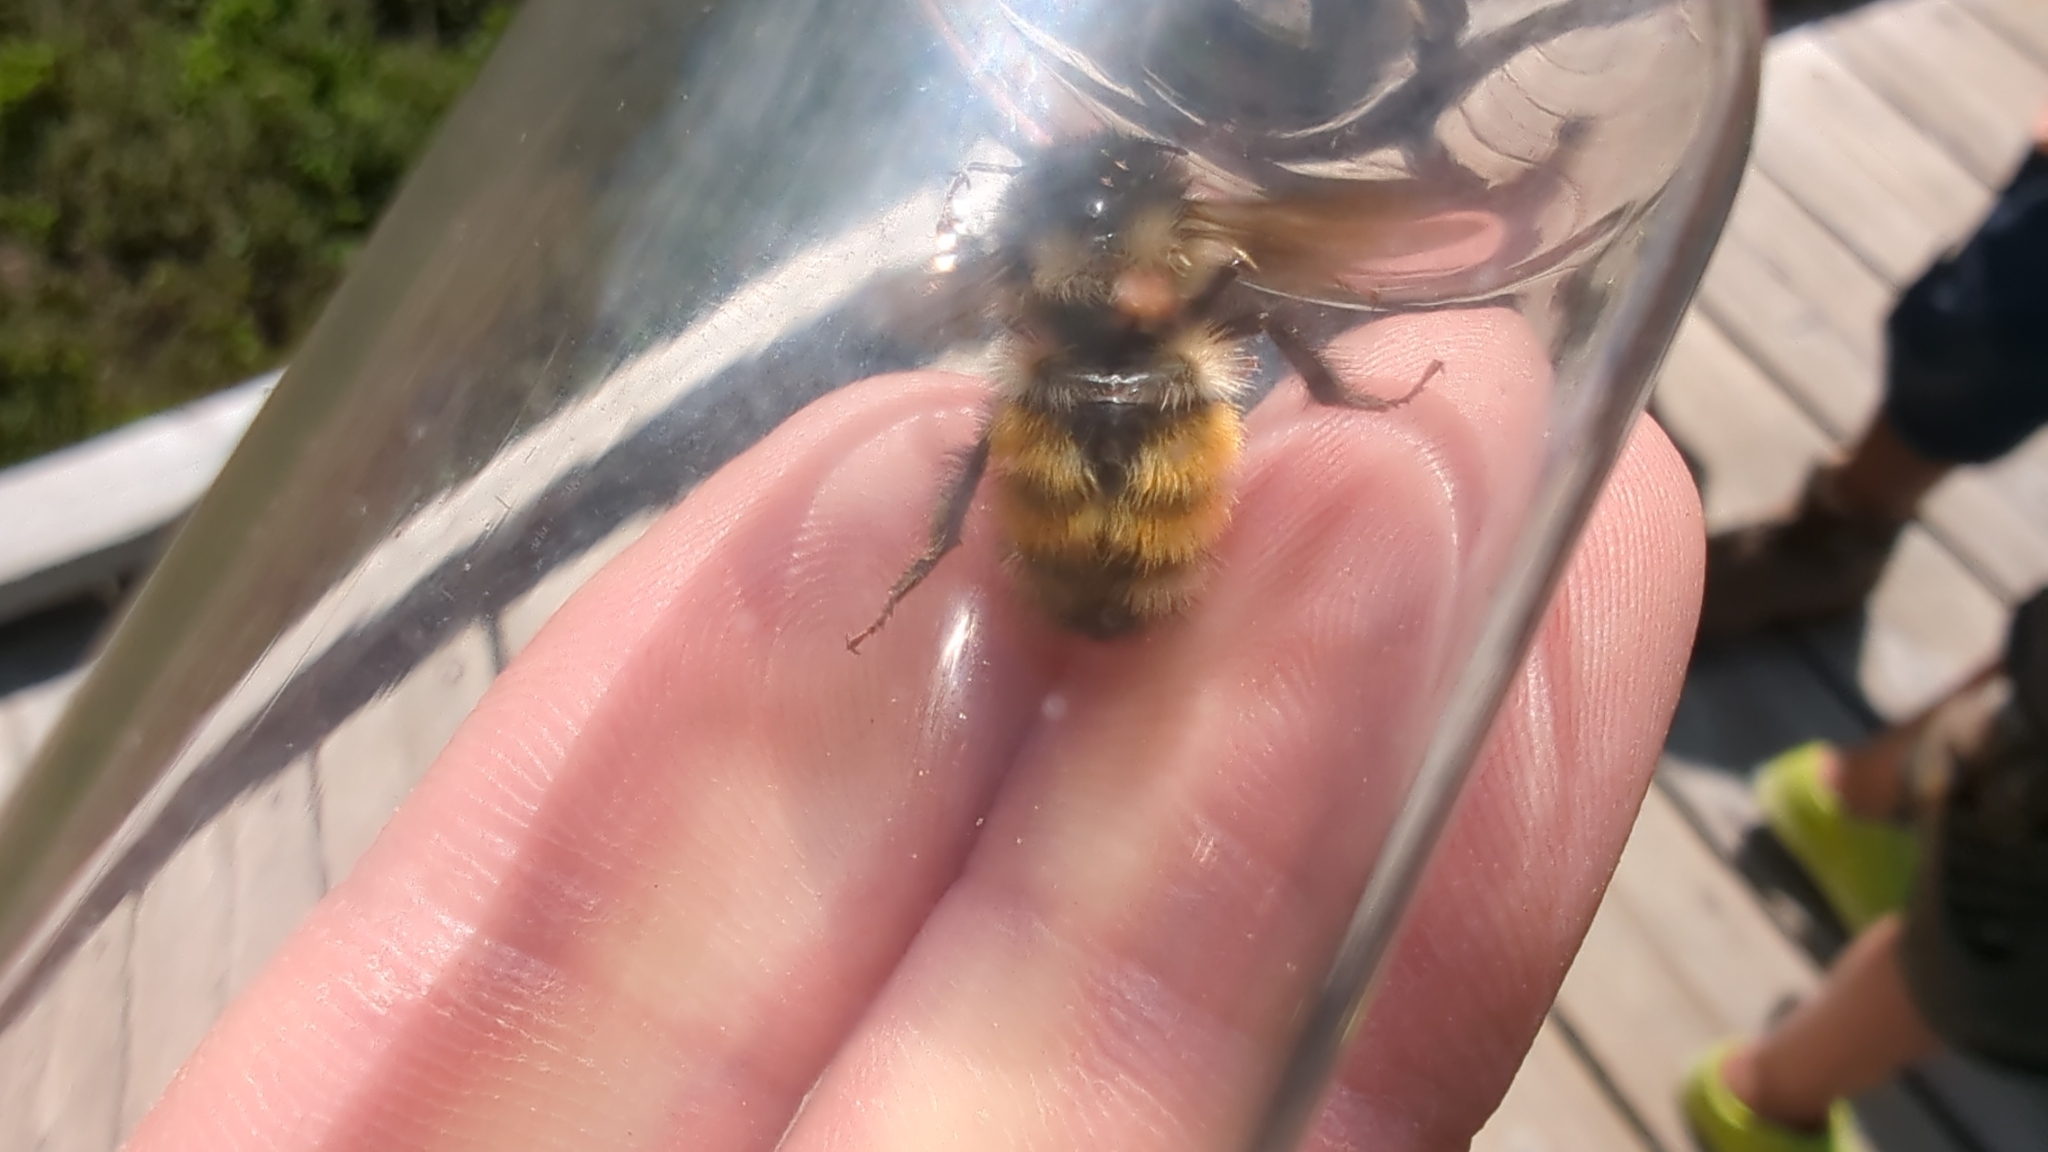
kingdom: Animalia
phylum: Arthropoda
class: Insecta
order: Hymenoptera
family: Apidae
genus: Bombus
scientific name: Bombus vancouverensis
